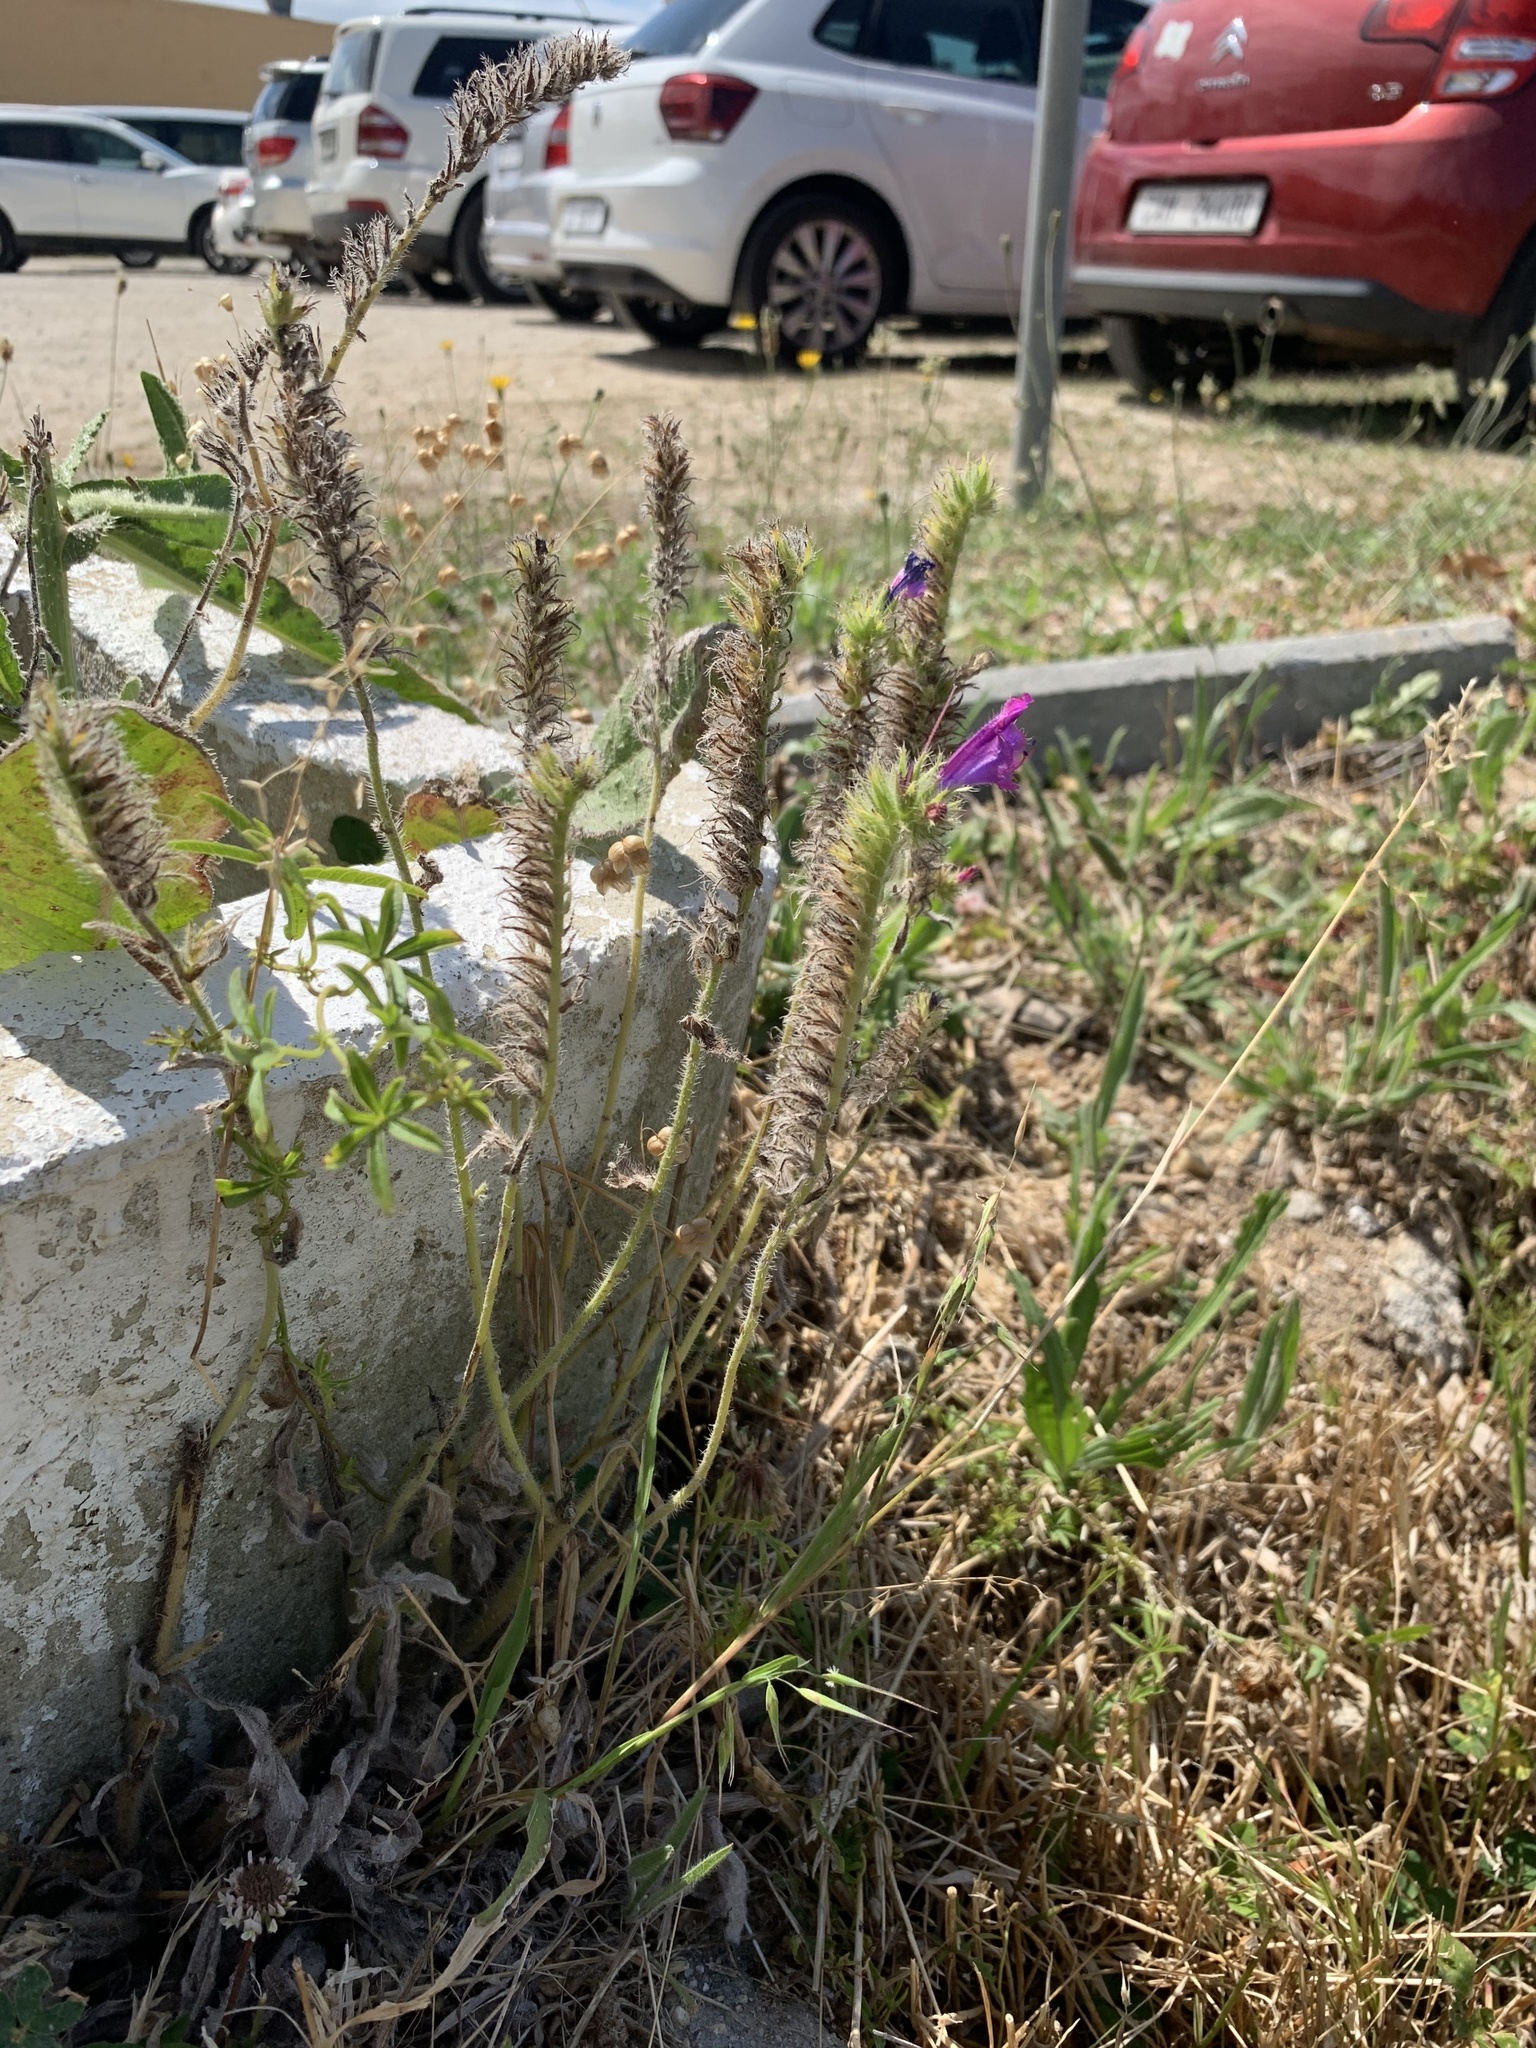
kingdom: Plantae
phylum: Tracheophyta
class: Magnoliopsida
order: Boraginales
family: Boraginaceae
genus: Echium
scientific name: Echium plantagineum
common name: Purple viper's-bugloss
